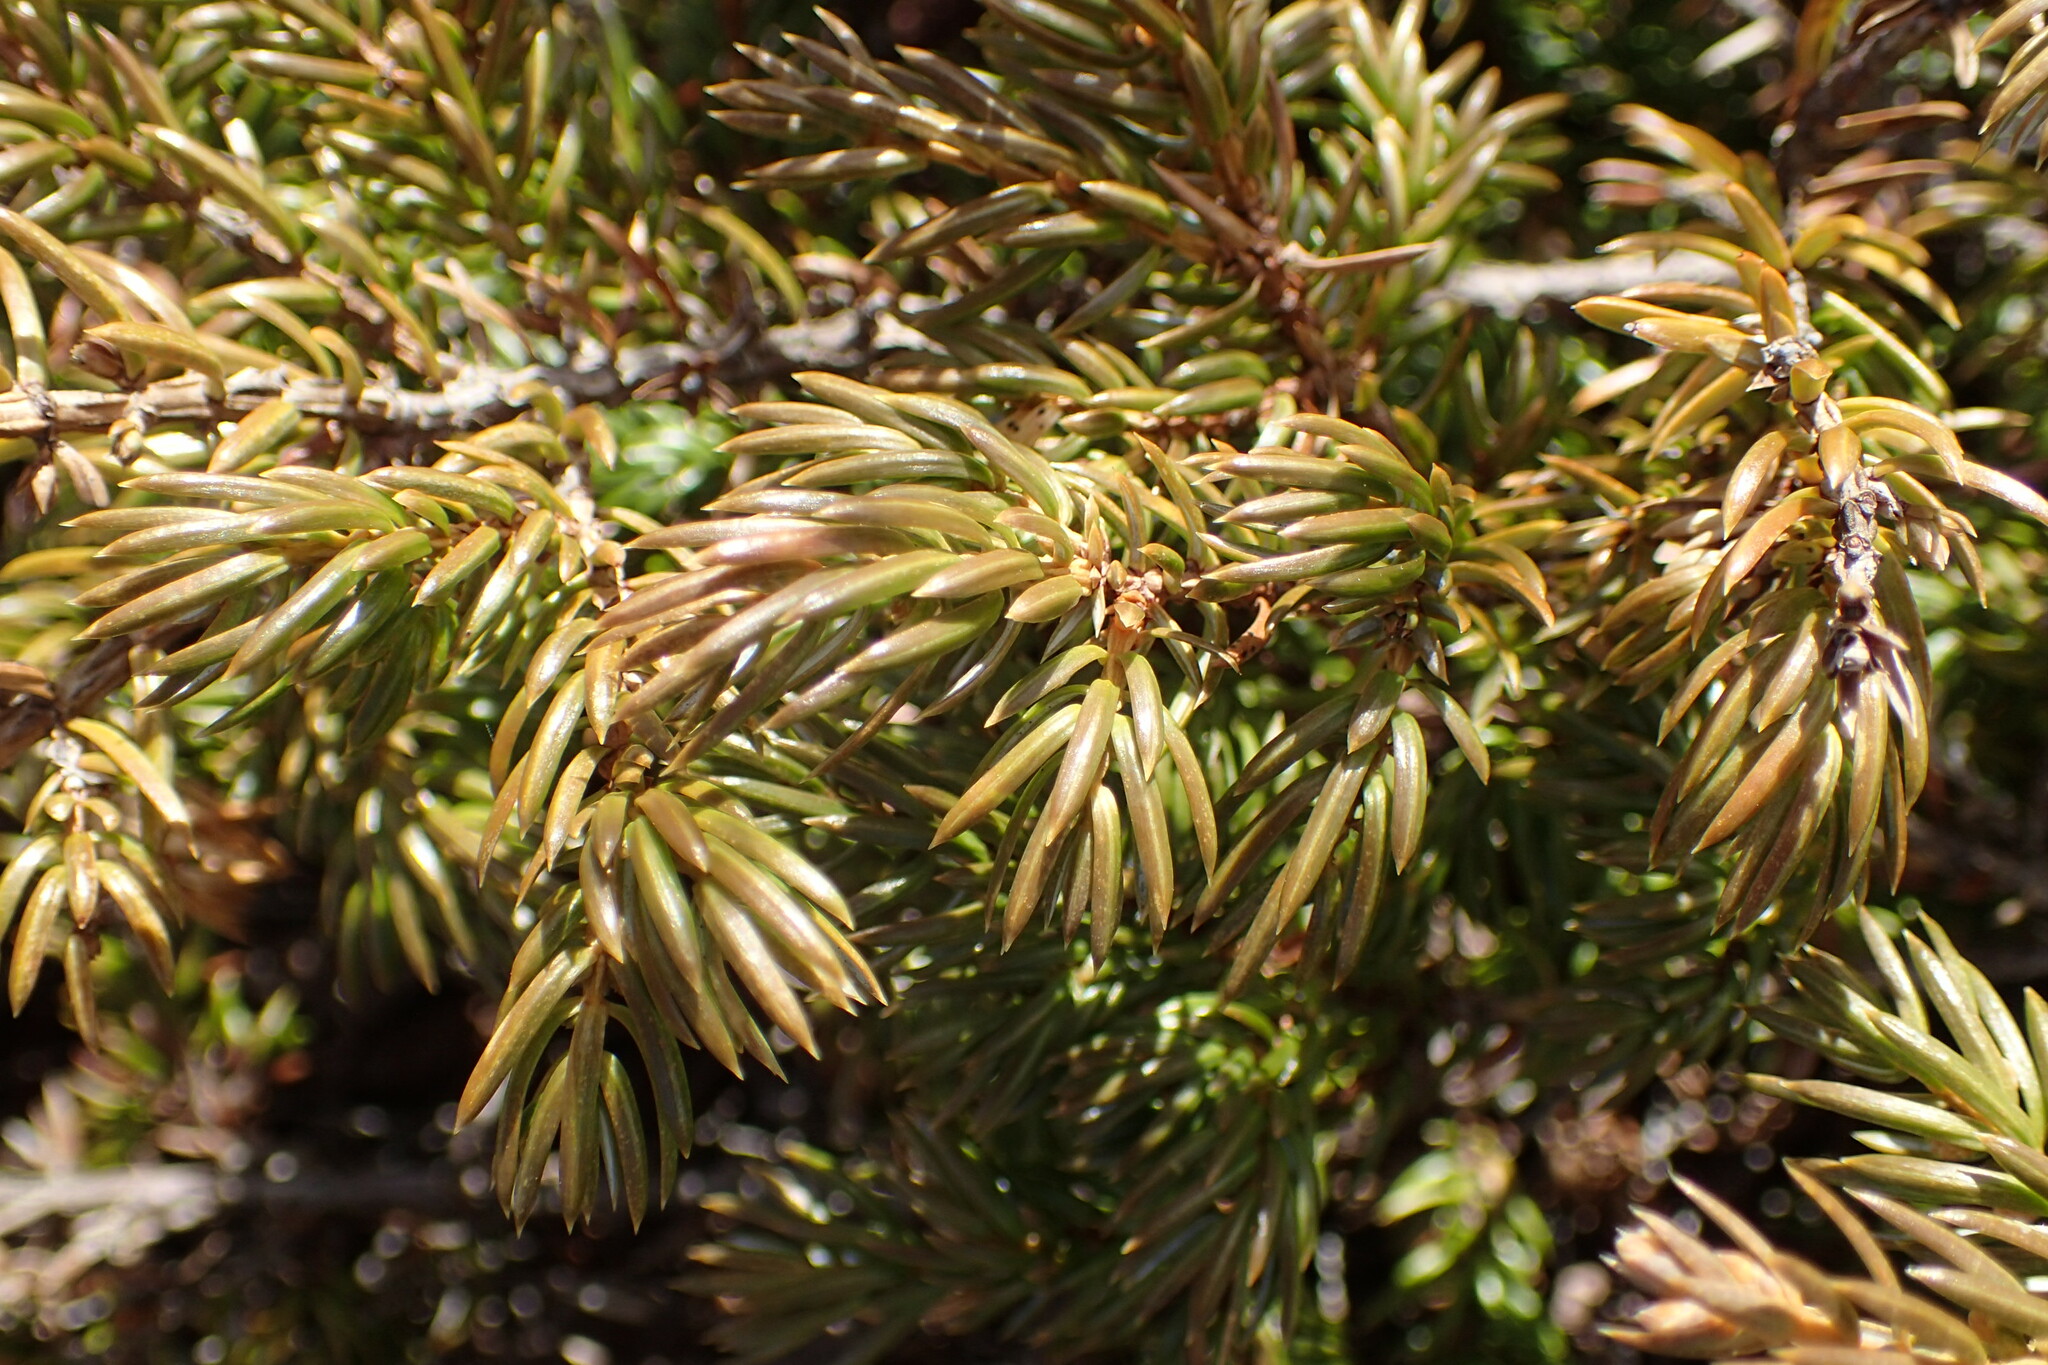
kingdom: Plantae
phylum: Tracheophyta
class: Pinopsida
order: Pinales
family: Cupressaceae
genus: Juniperus
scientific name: Juniperus communis
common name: Common juniper
